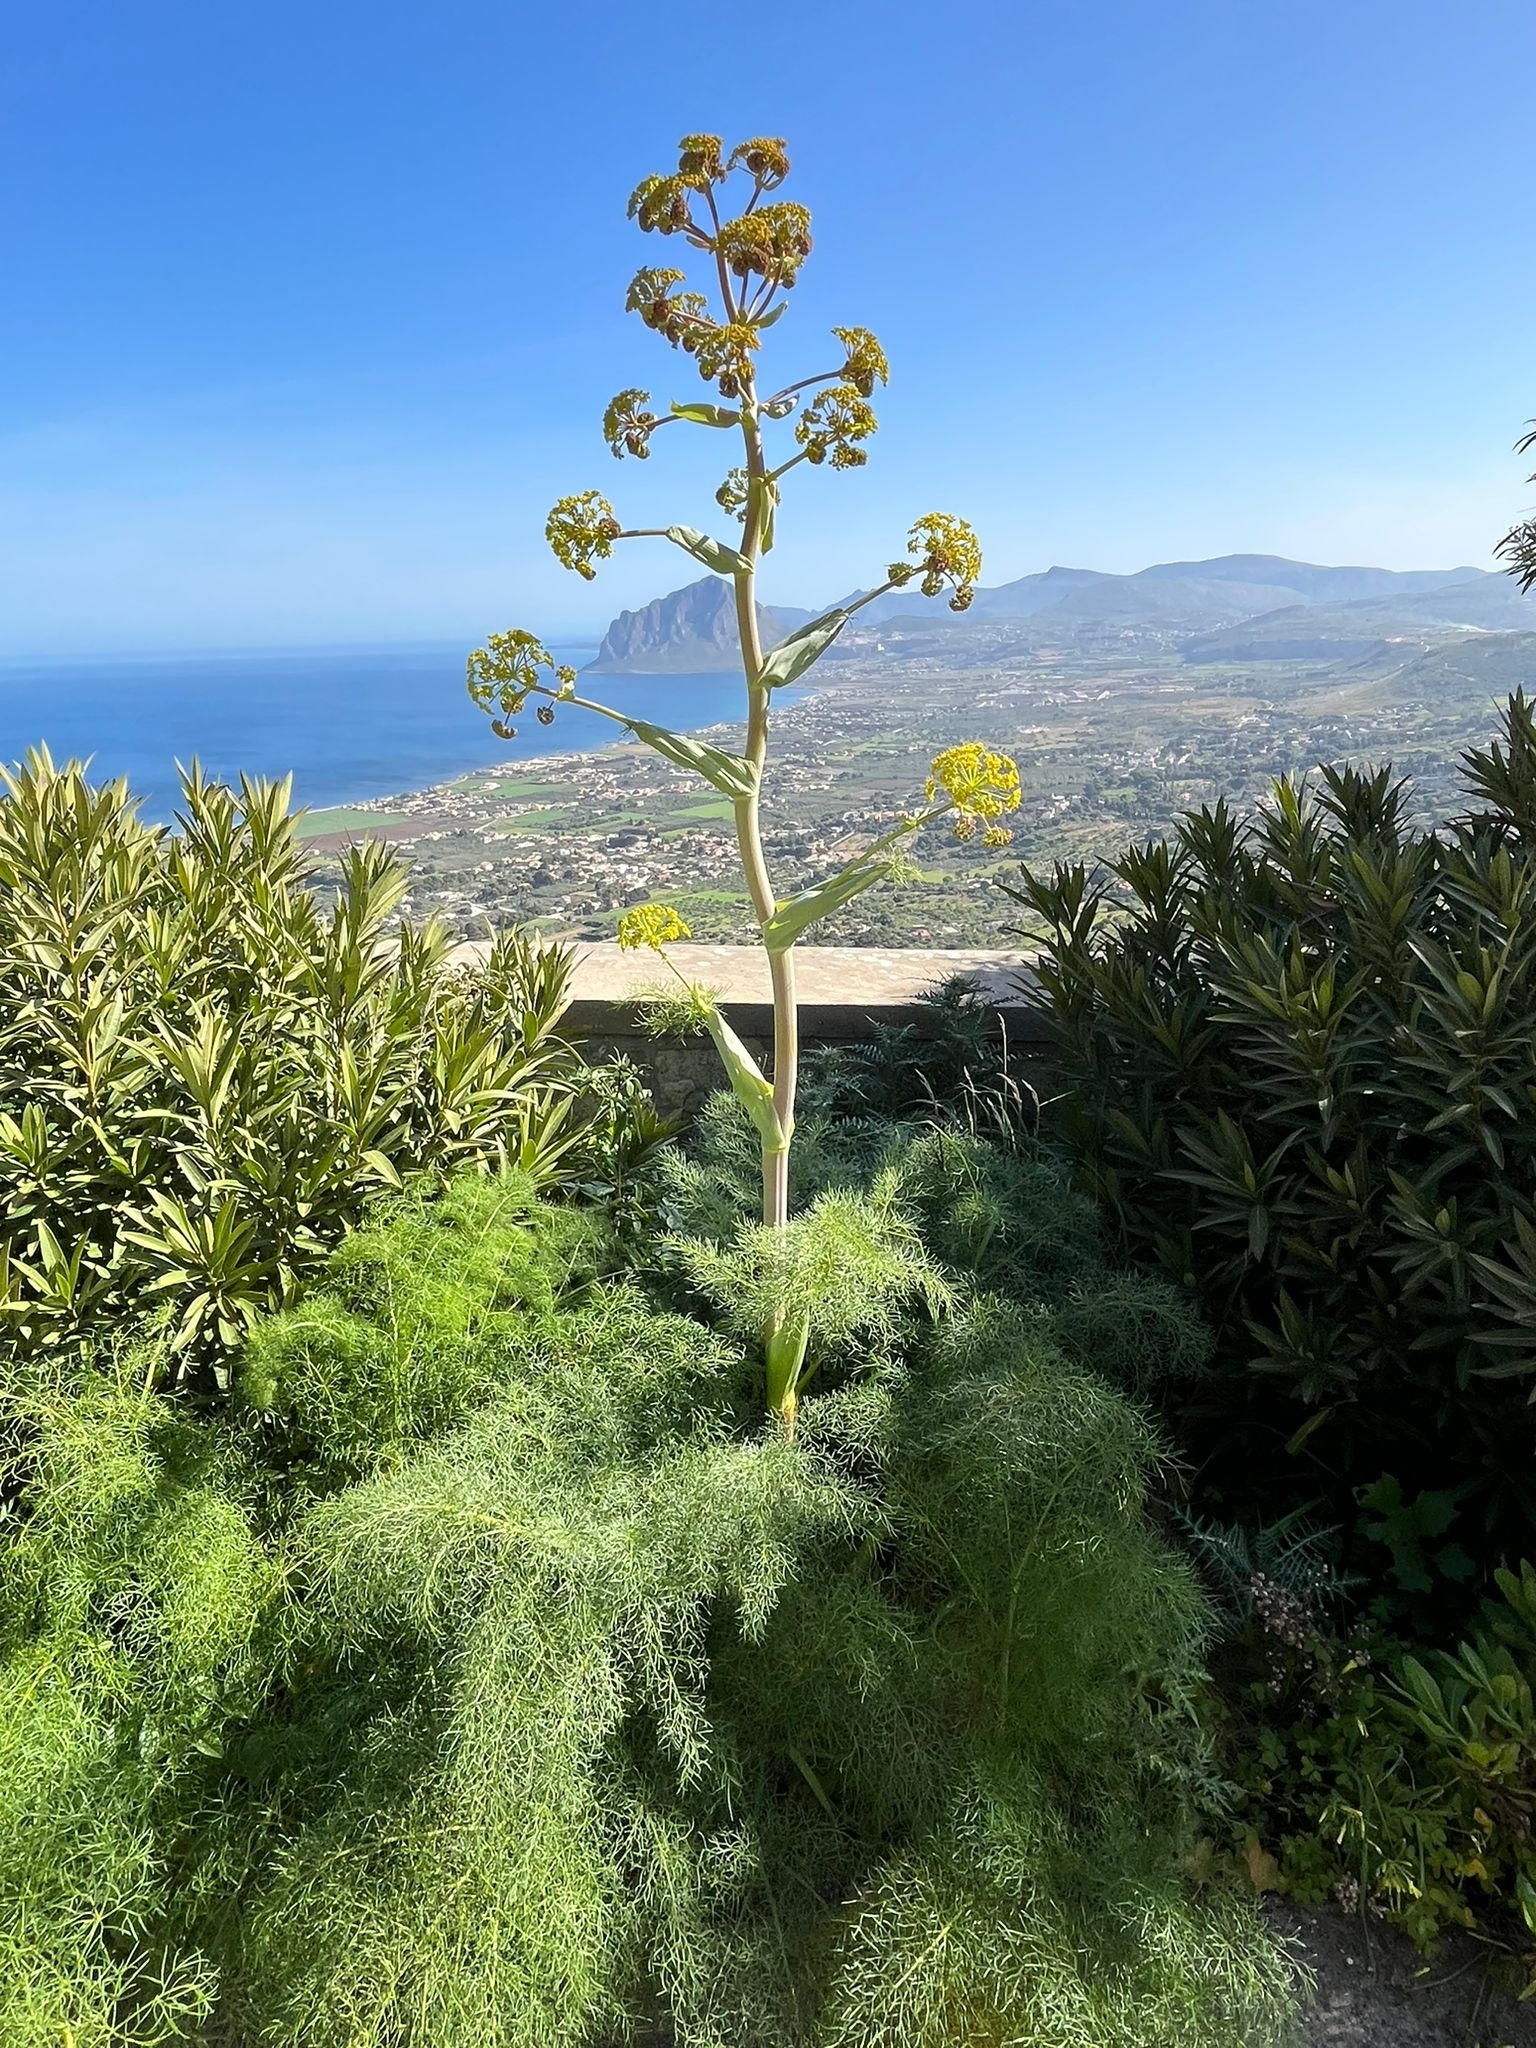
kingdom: Plantae
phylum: Tracheophyta
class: Magnoliopsida
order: Apiales
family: Apiaceae
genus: Ferula
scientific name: Ferula communis
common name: Giant fennel
